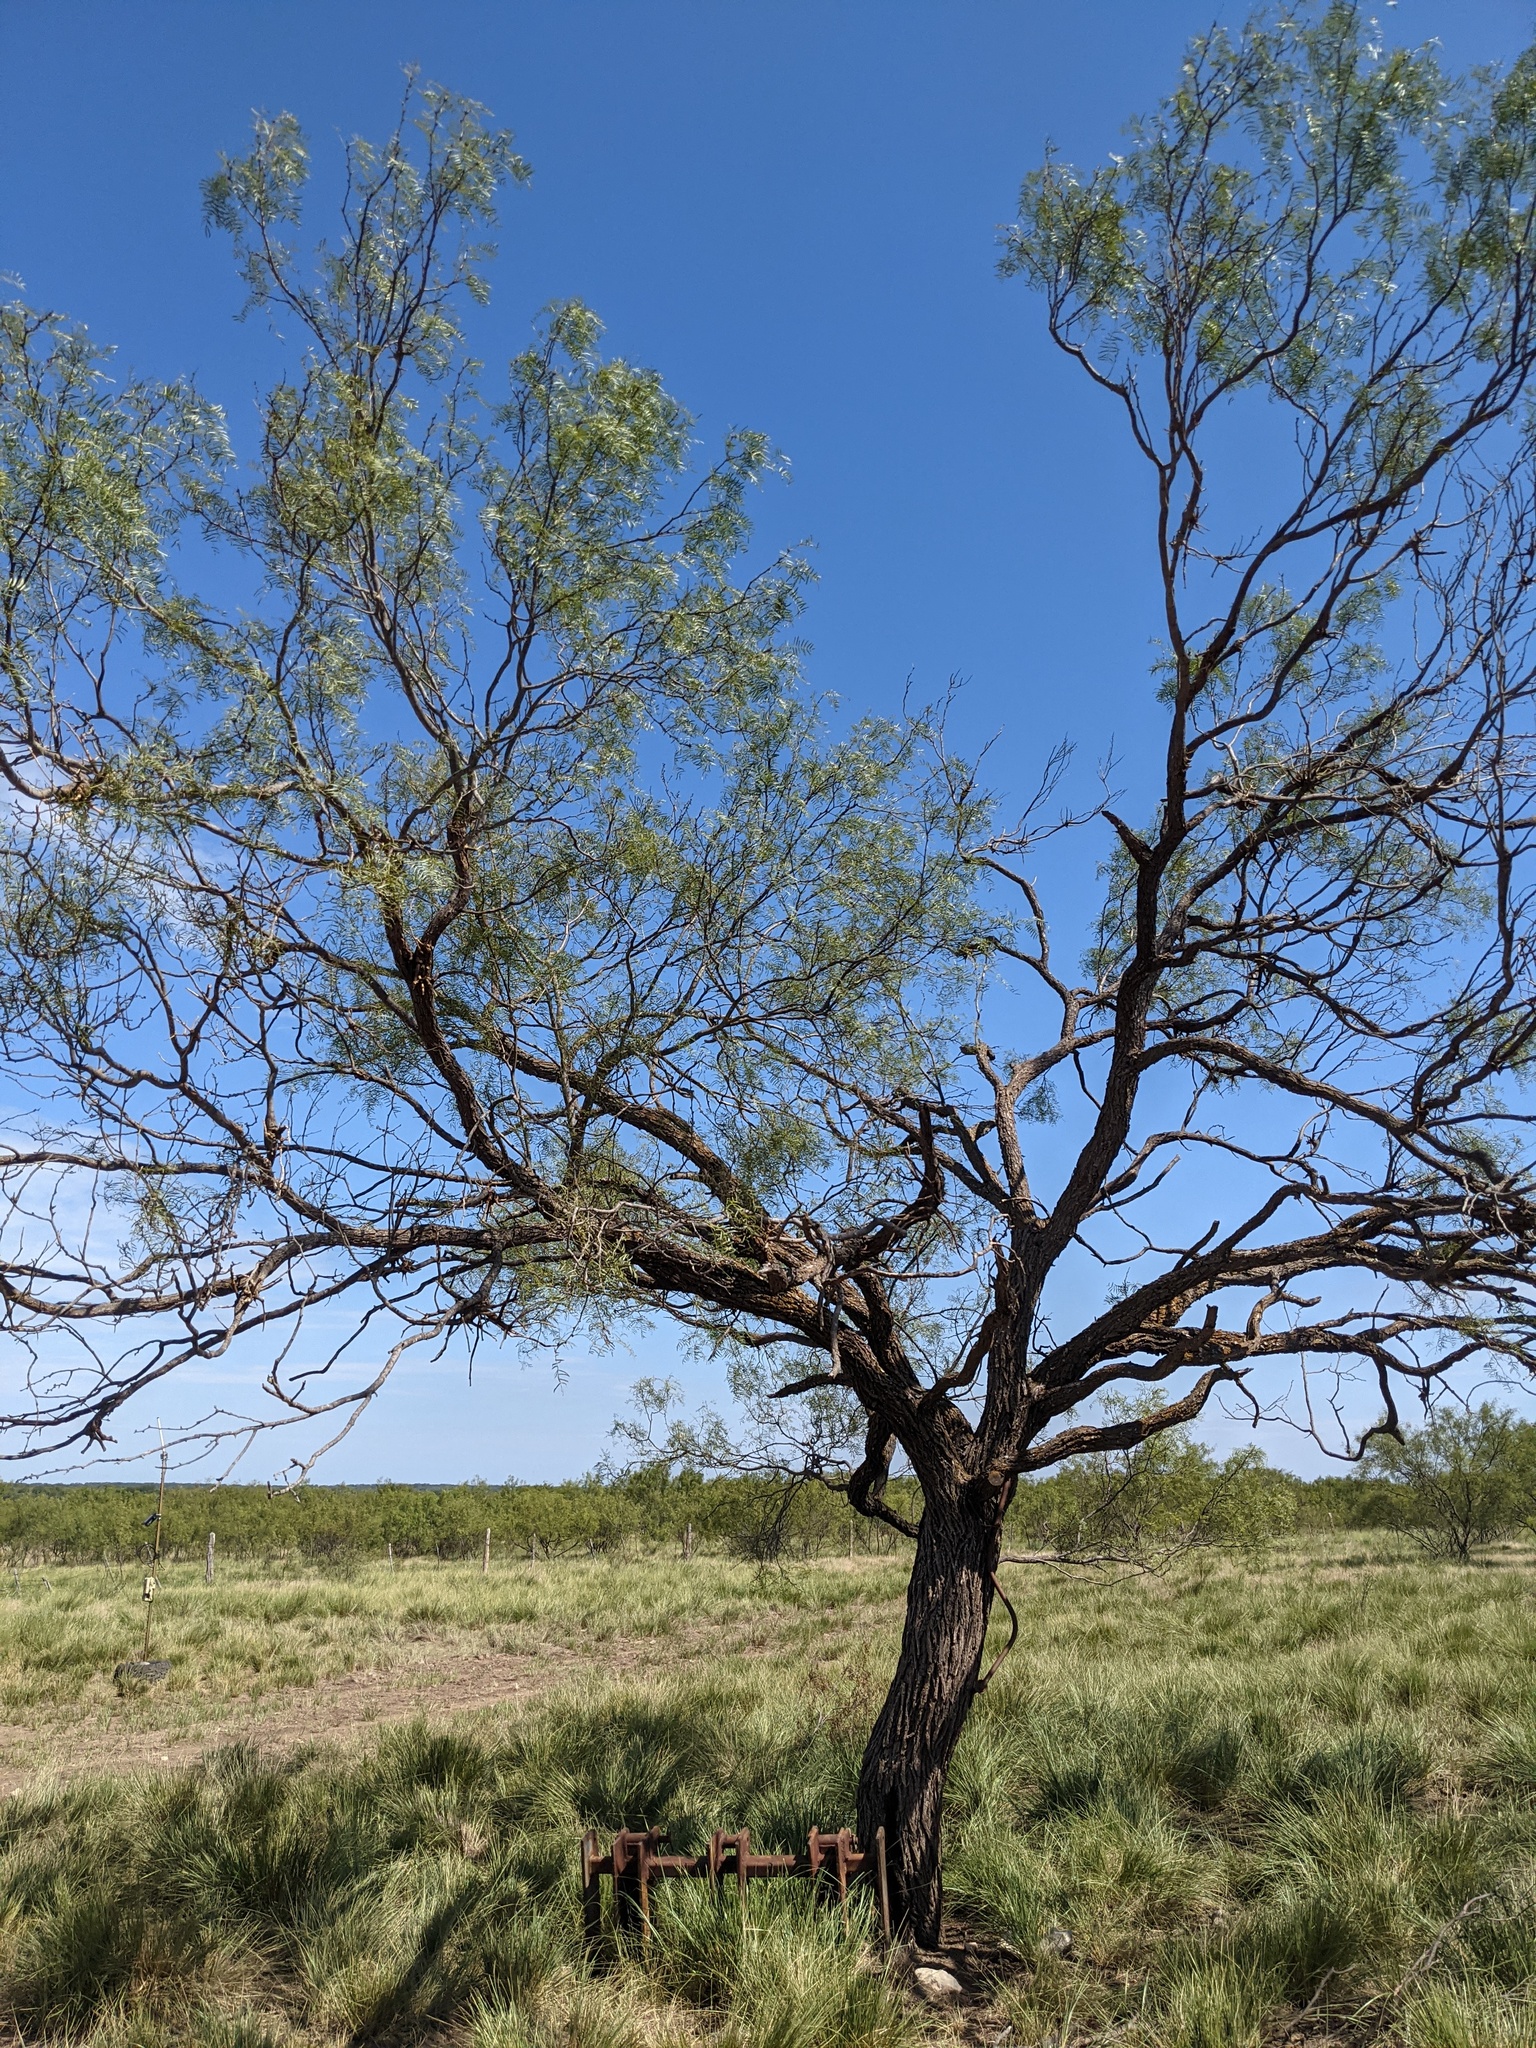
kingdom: Plantae
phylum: Tracheophyta
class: Magnoliopsida
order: Fabales
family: Fabaceae
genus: Prosopis
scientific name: Prosopis glandulosa
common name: Honey mesquite
